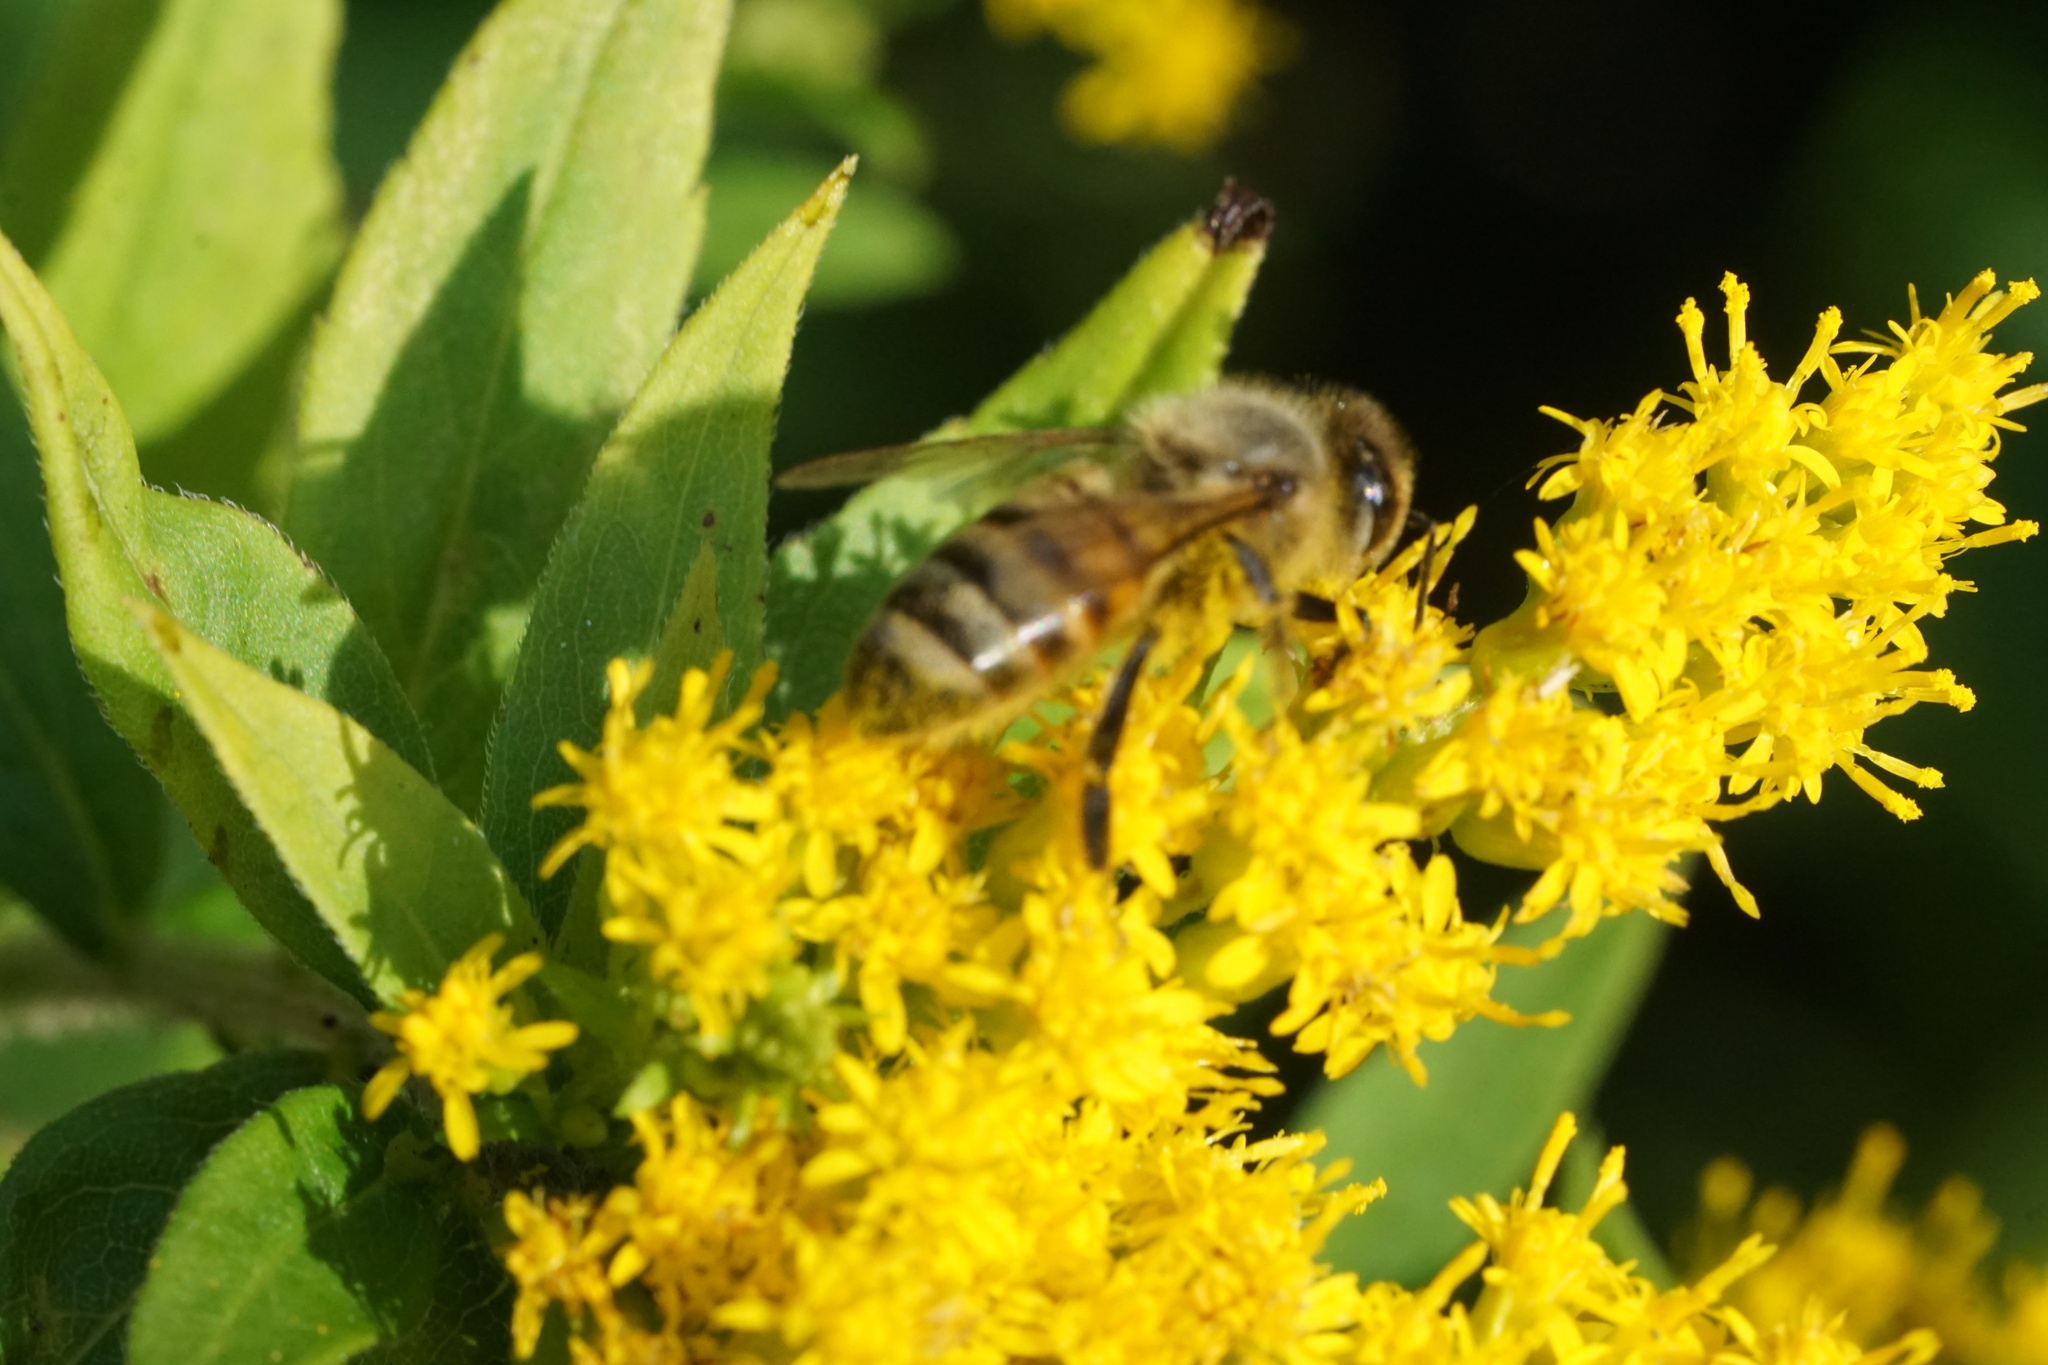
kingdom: Animalia
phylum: Arthropoda
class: Insecta
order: Hymenoptera
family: Apidae
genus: Apis
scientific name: Apis mellifera
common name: Honey bee
